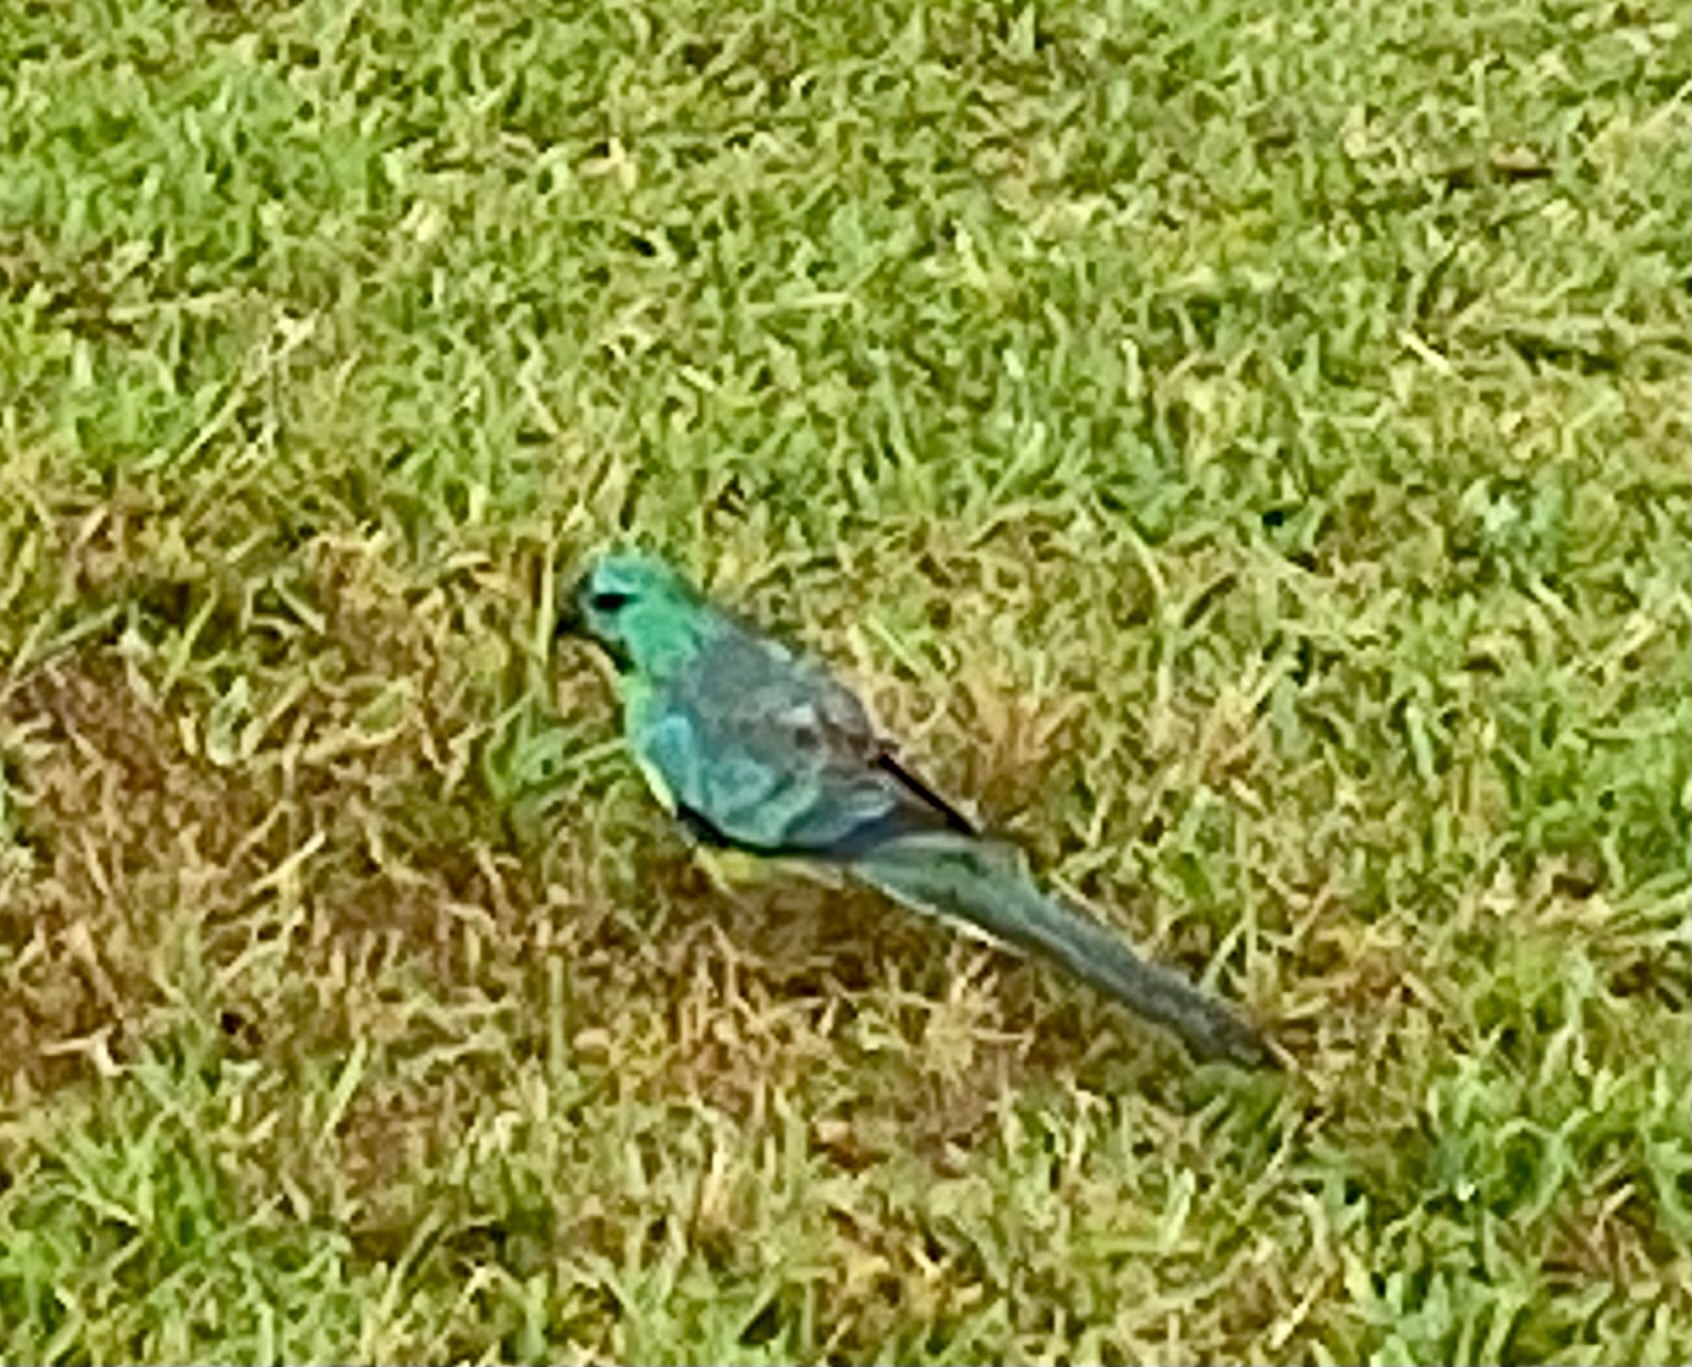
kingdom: Animalia
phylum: Chordata
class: Aves
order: Psittaciformes
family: Psittacidae
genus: Psephotus
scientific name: Psephotus haematonotus
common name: Red-rumped parrot
